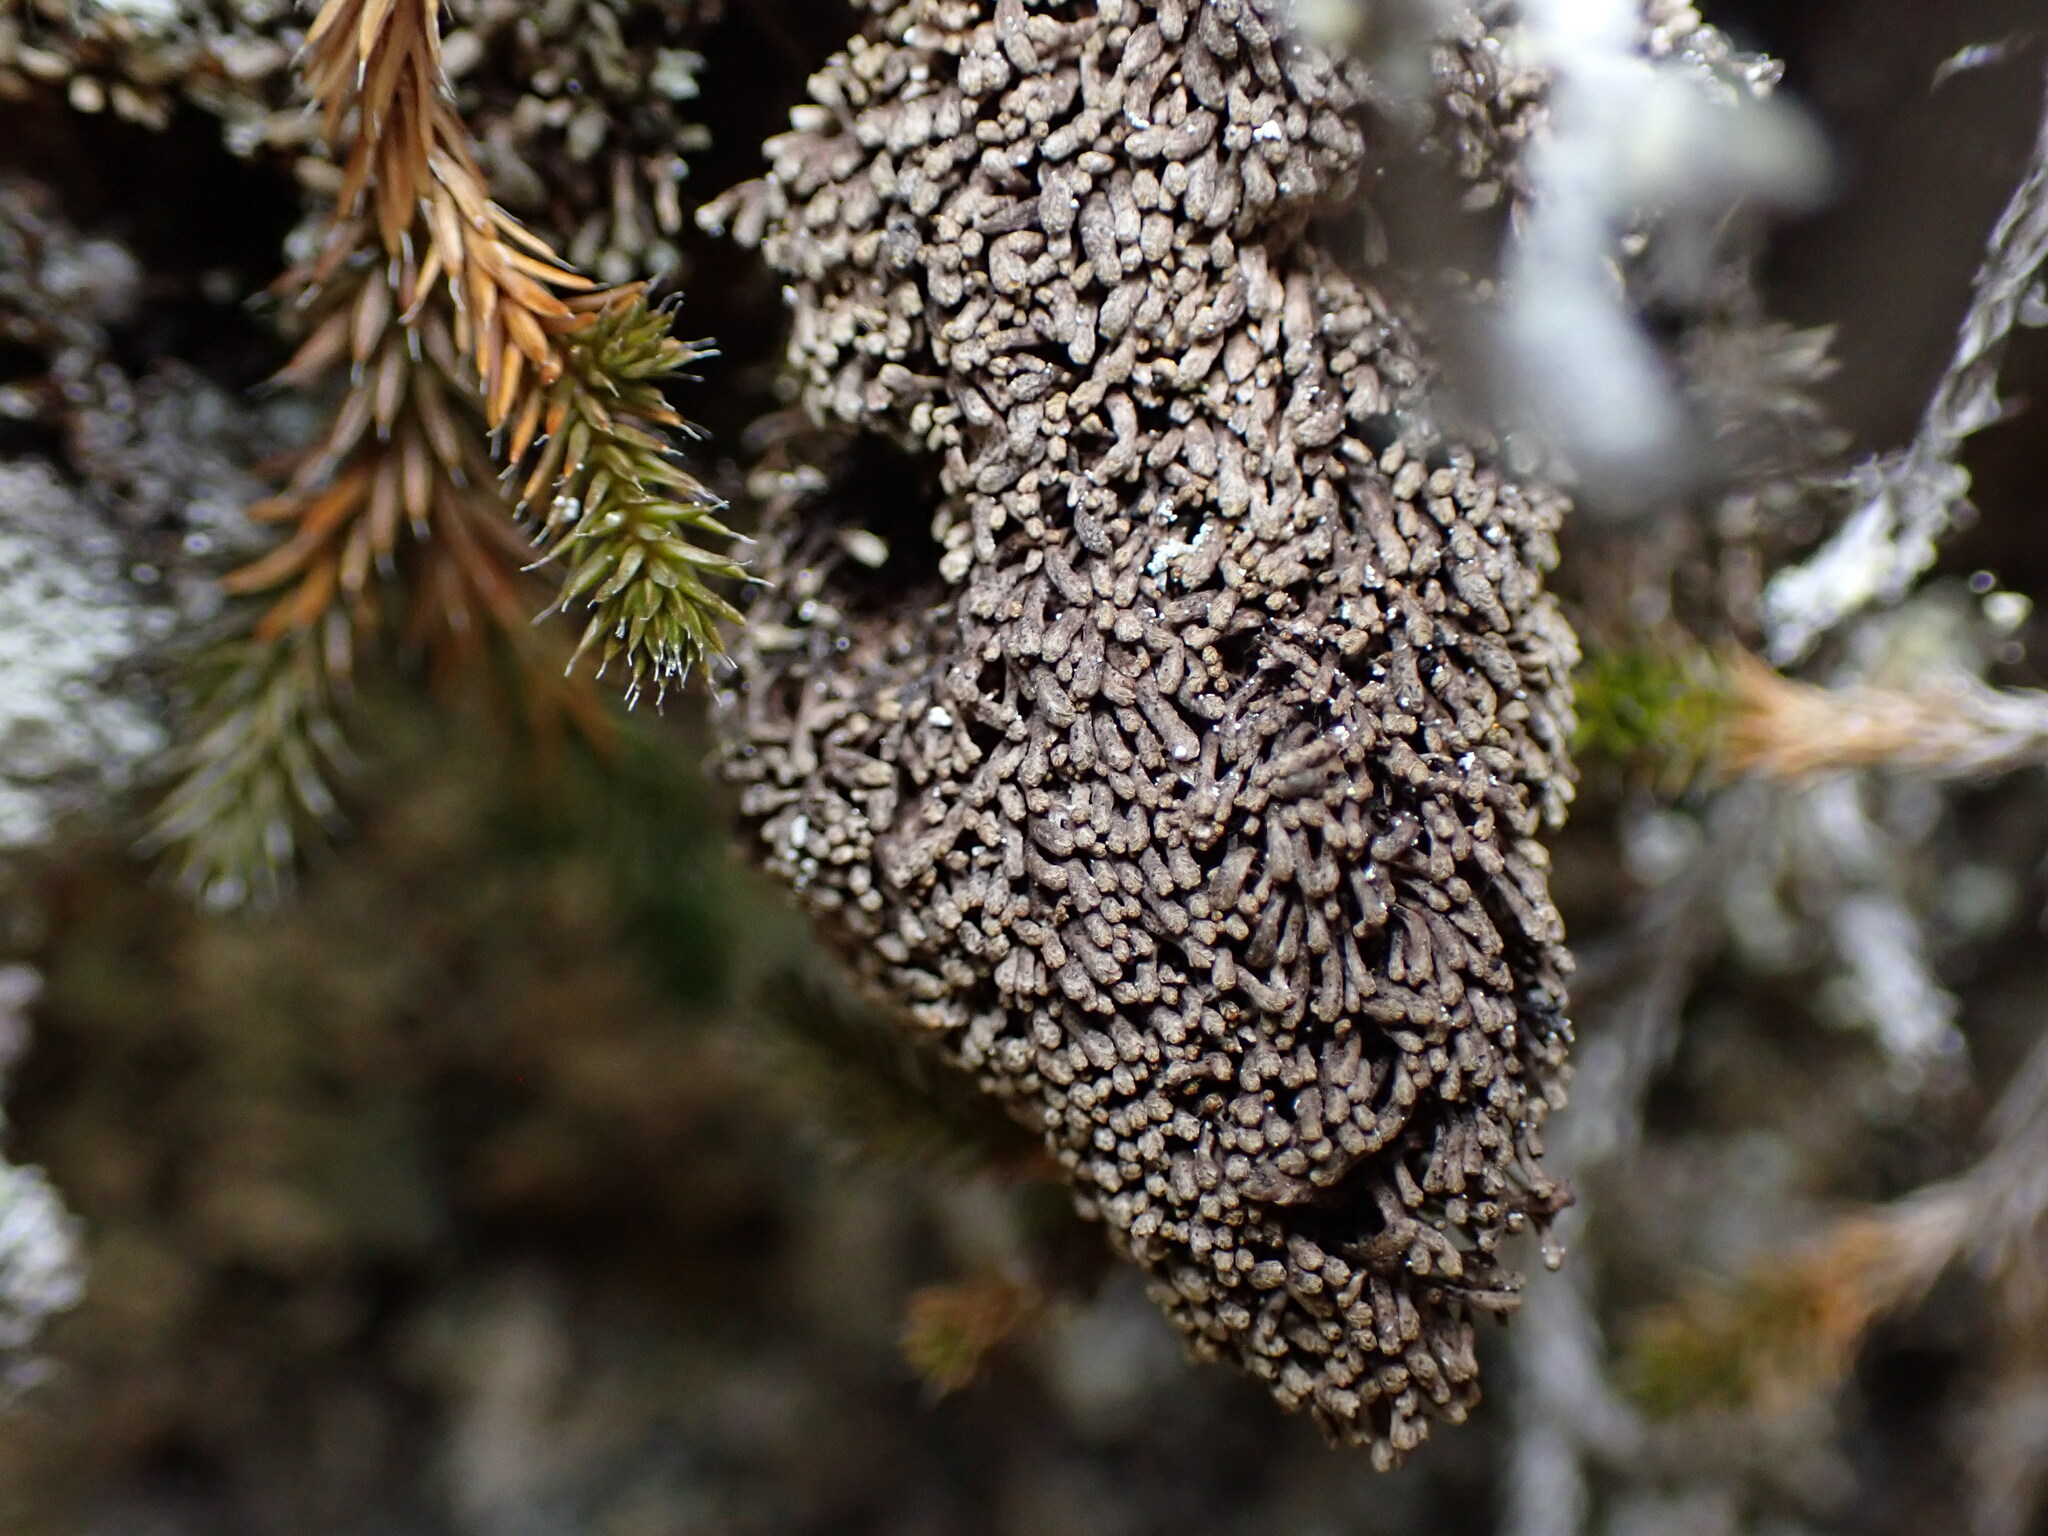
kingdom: Plantae
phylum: Marchantiophyta
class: Jungermanniopsida
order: Jungermanniales
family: Gymnomitriaceae
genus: Gymnomitrion
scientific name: Gymnomitrion obtusum
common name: White frostwort
